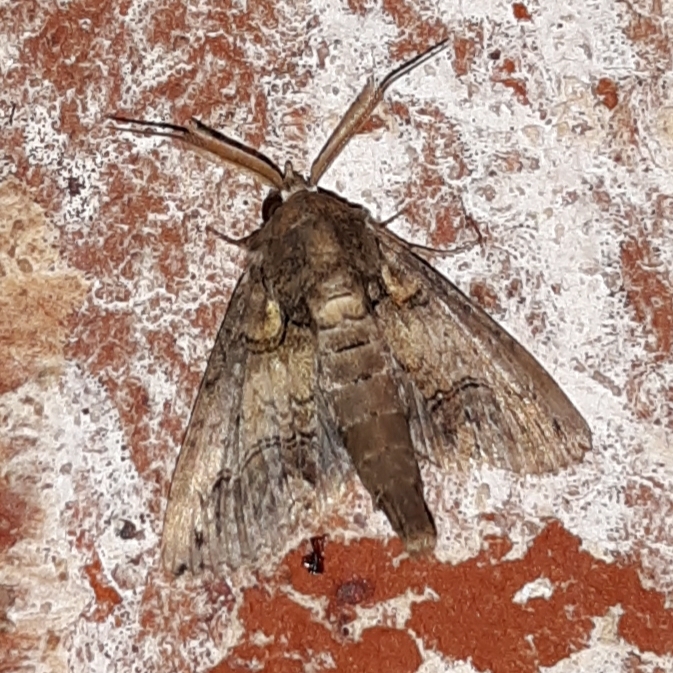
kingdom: Animalia
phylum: Arthropoda
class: Insecta
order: Lepidoptera
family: Euteliidae
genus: Paectes
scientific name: Paectes abrostoloides
